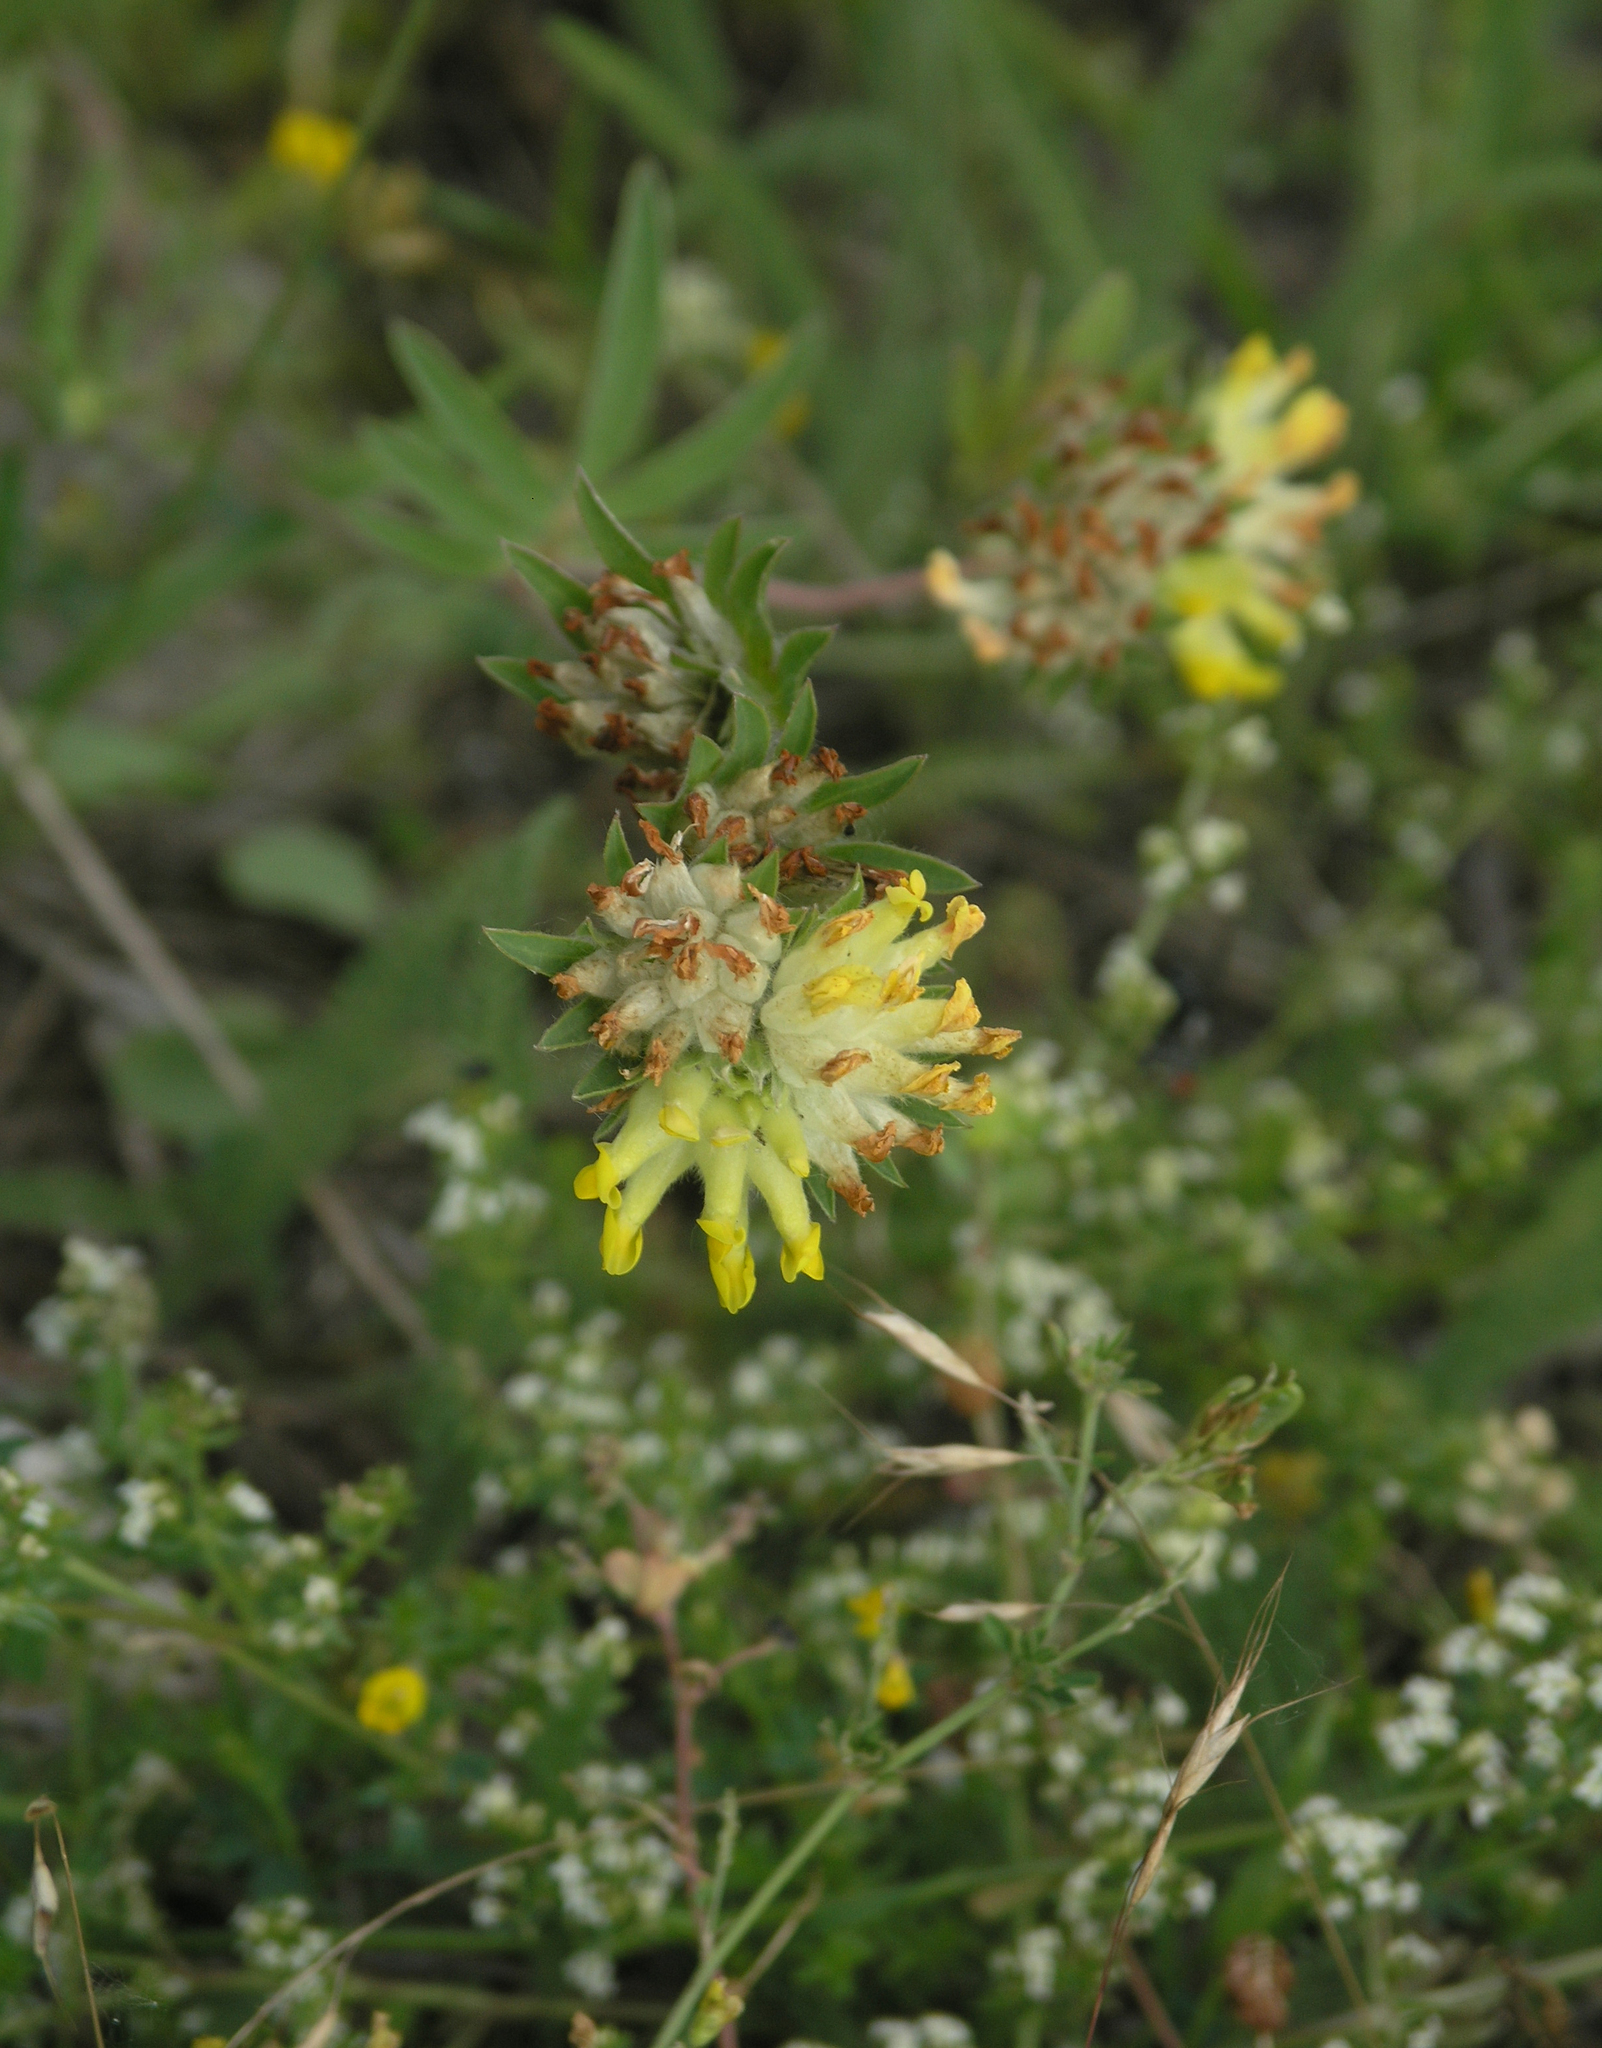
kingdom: Plantae
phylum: Tracheophyta
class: Magnoliopsida
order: Fabales
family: Fabaceae
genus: Anthyllis
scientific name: Anthyllis vulneraria
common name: Kidney vetch
